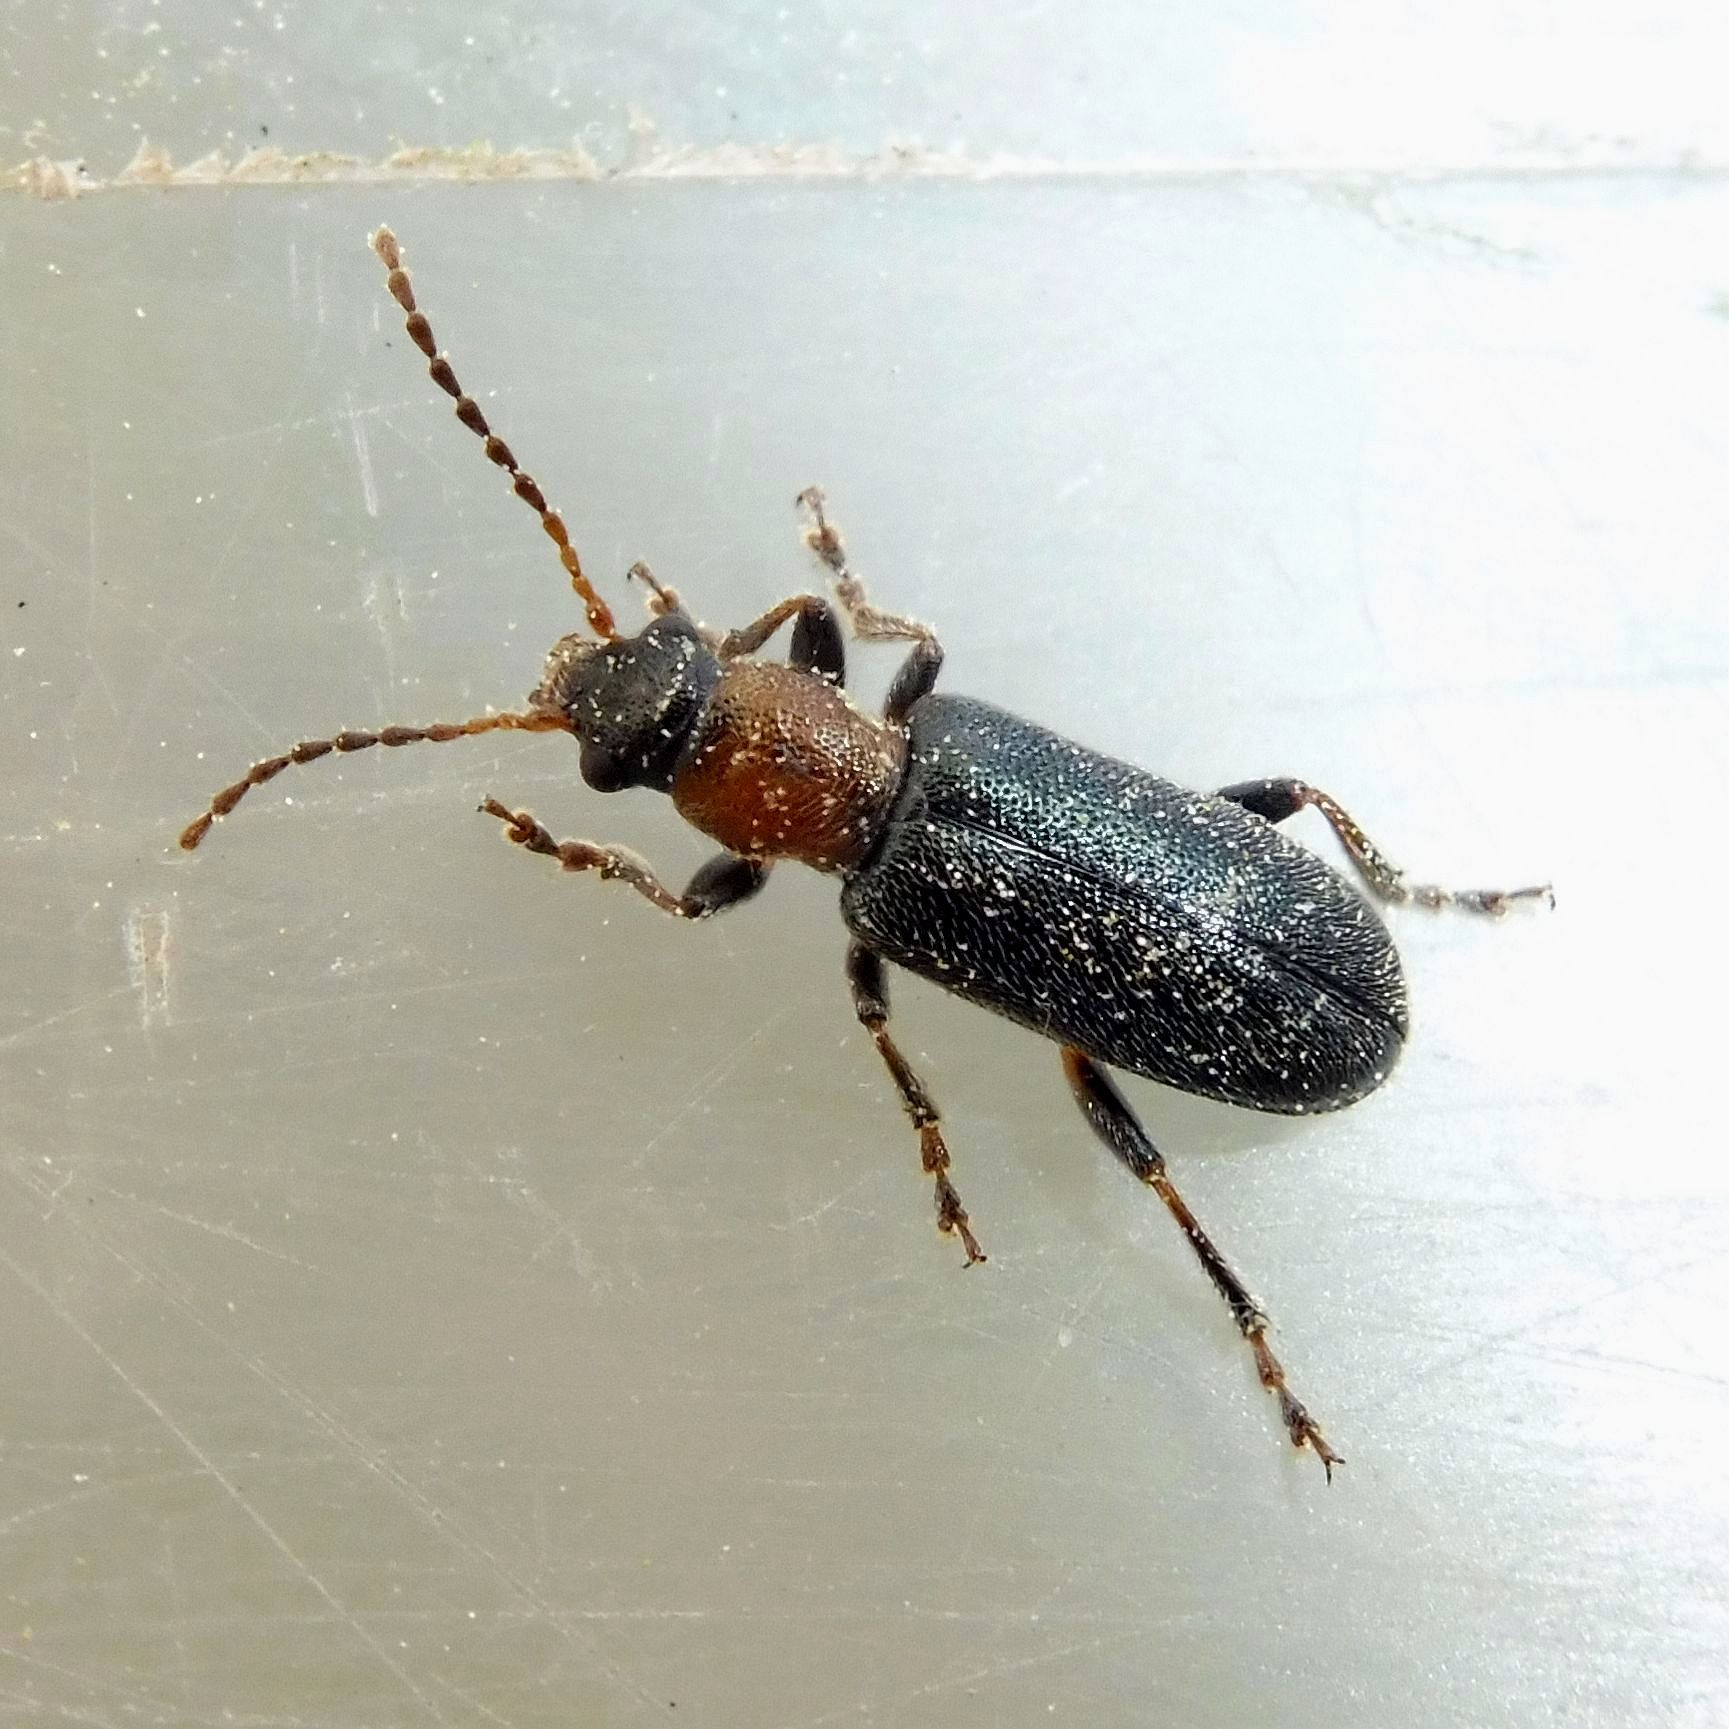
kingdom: Animalia
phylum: Arthropoda
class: Insecta
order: Coleoptera
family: Orsodacnidae
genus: Orsodacne
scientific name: Orsodacne humeralis
